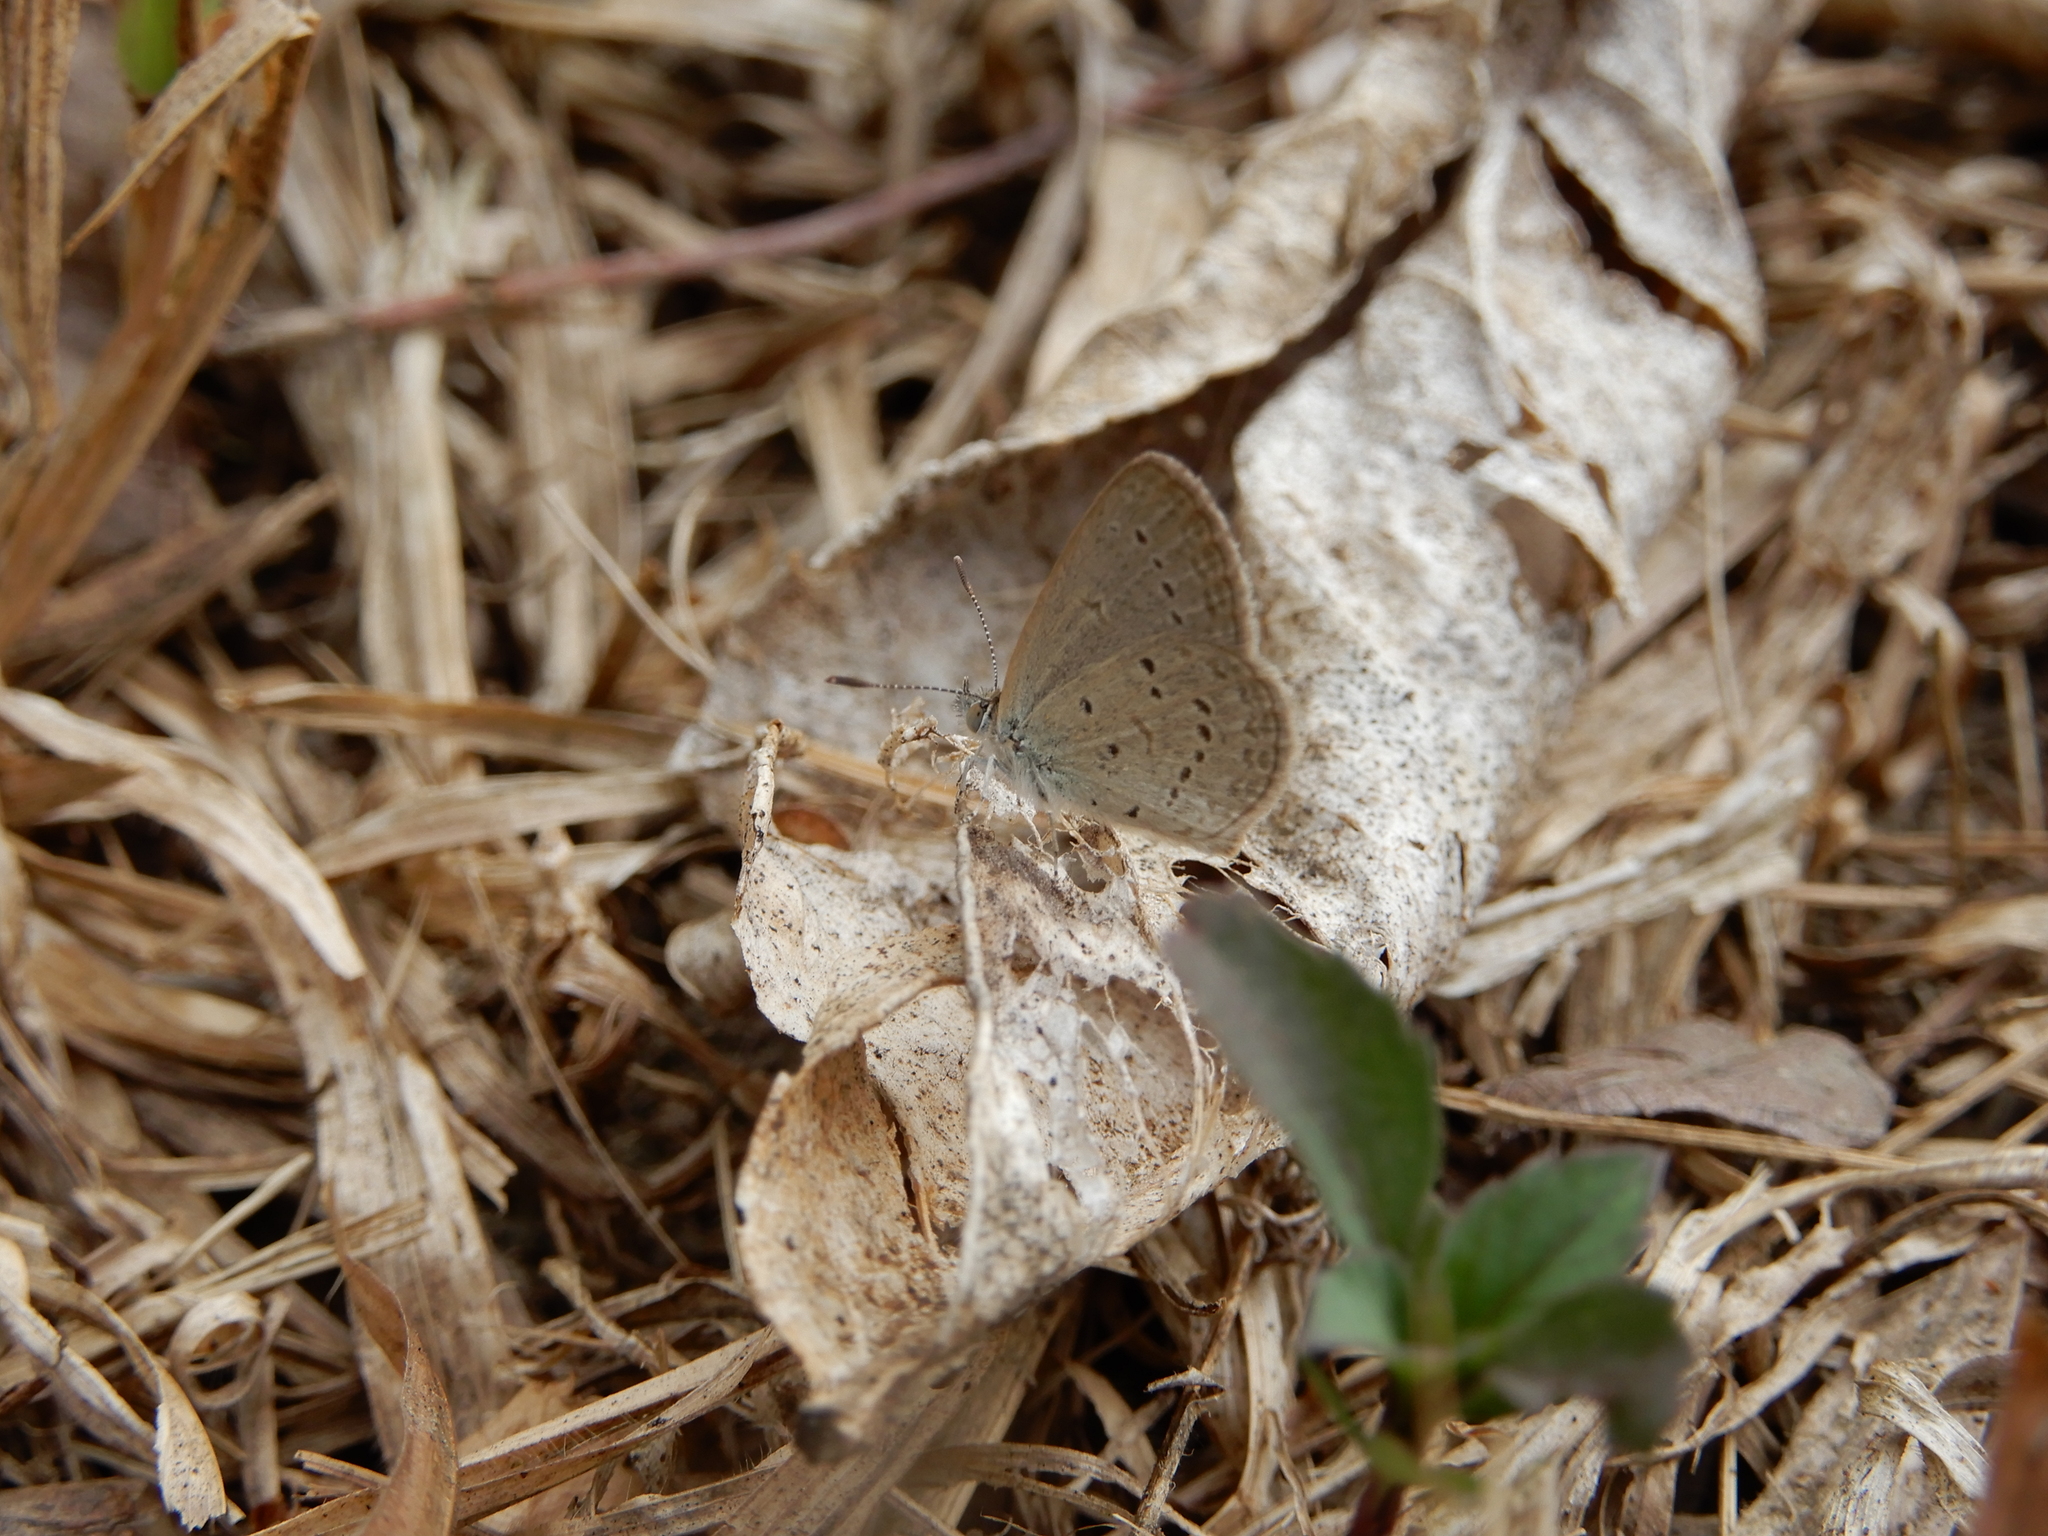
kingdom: Animalia
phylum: Arthropoda
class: Insecta
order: Lepidoptera
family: Lycaenidae
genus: Zizina
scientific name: Zizina otis
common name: Lesser grass blue
